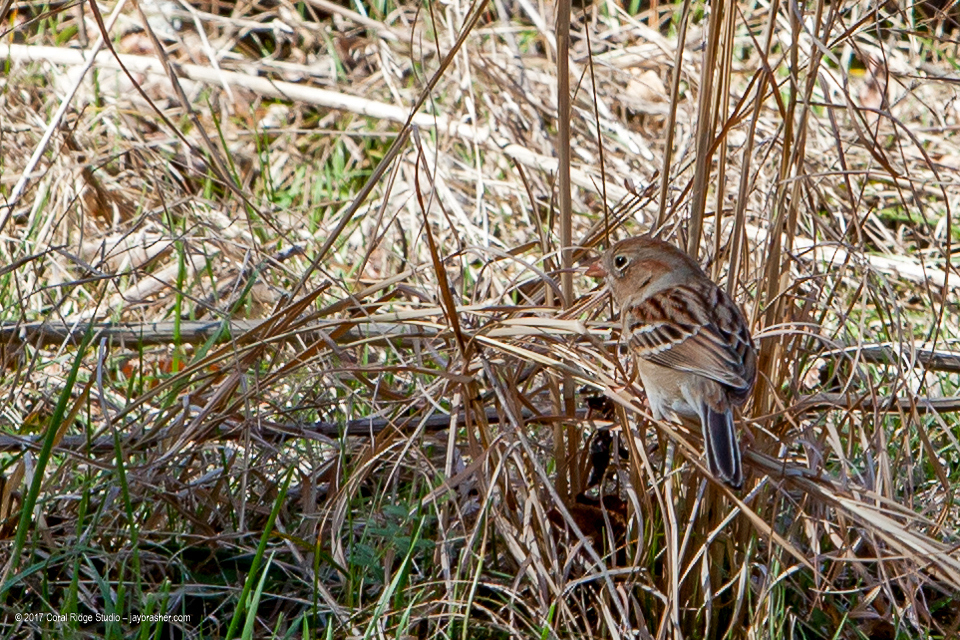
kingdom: Animalia
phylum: Chordata
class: Aves
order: Passeriformes
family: Passerellidae
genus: Spizella
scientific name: Spizella pusilla
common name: Field sparrow
